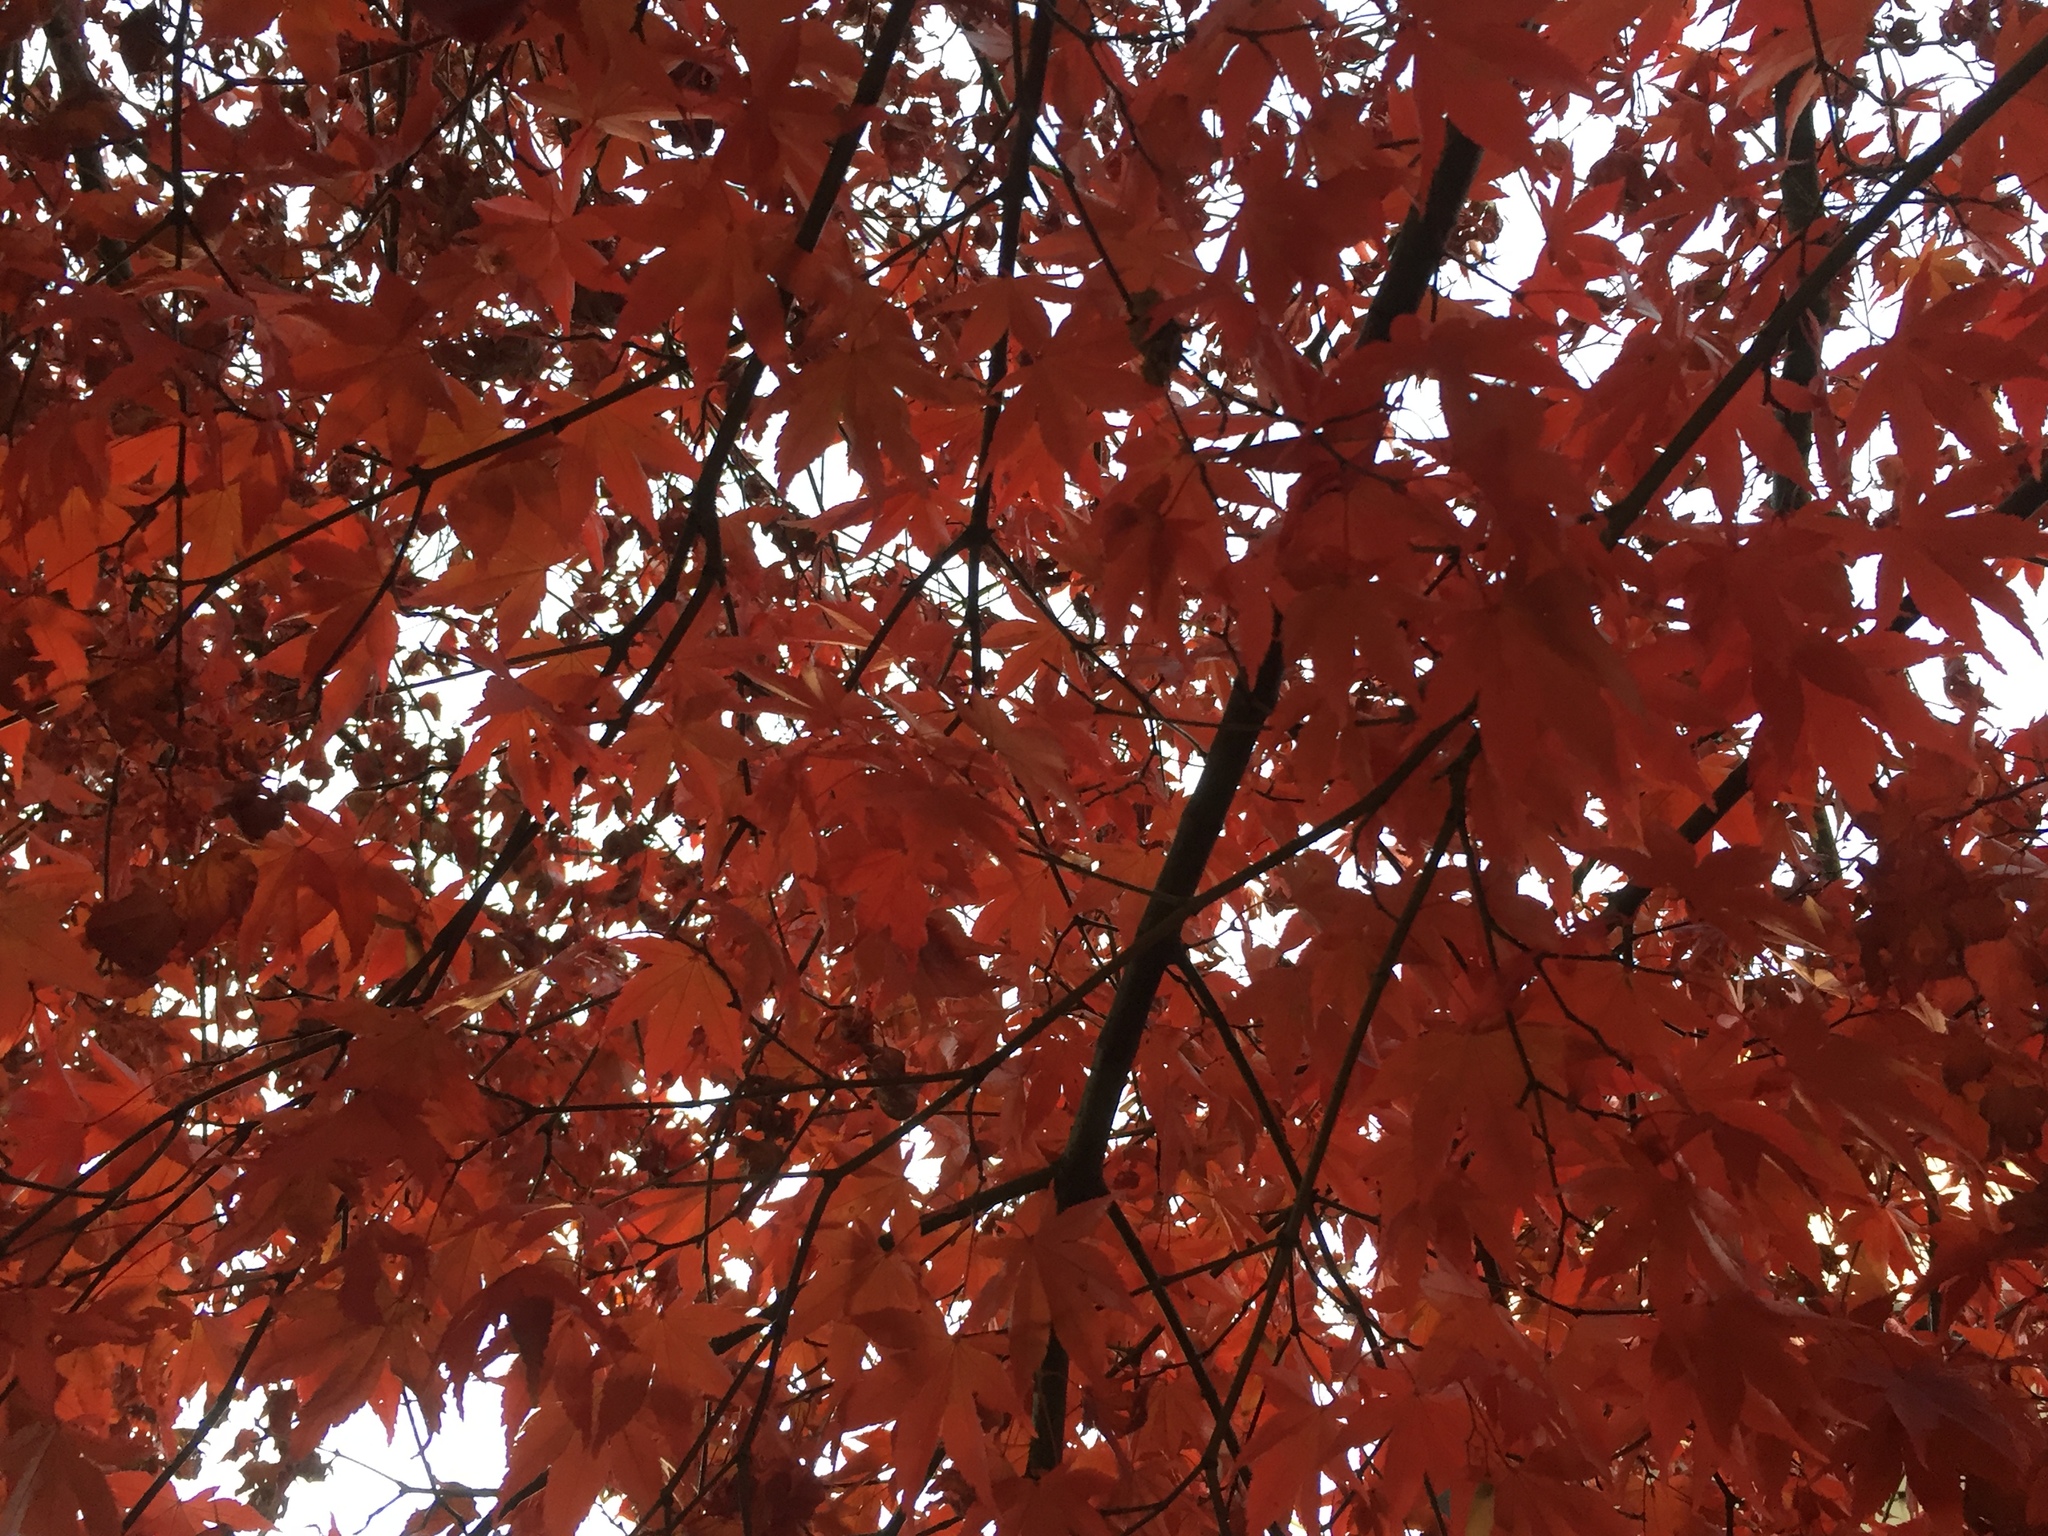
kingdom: Plantae
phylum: Tracheophyta
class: Magnoliopsida
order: Sapindales
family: Sapindaceae
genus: Acer
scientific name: Acer palmatum
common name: Japanese maple
